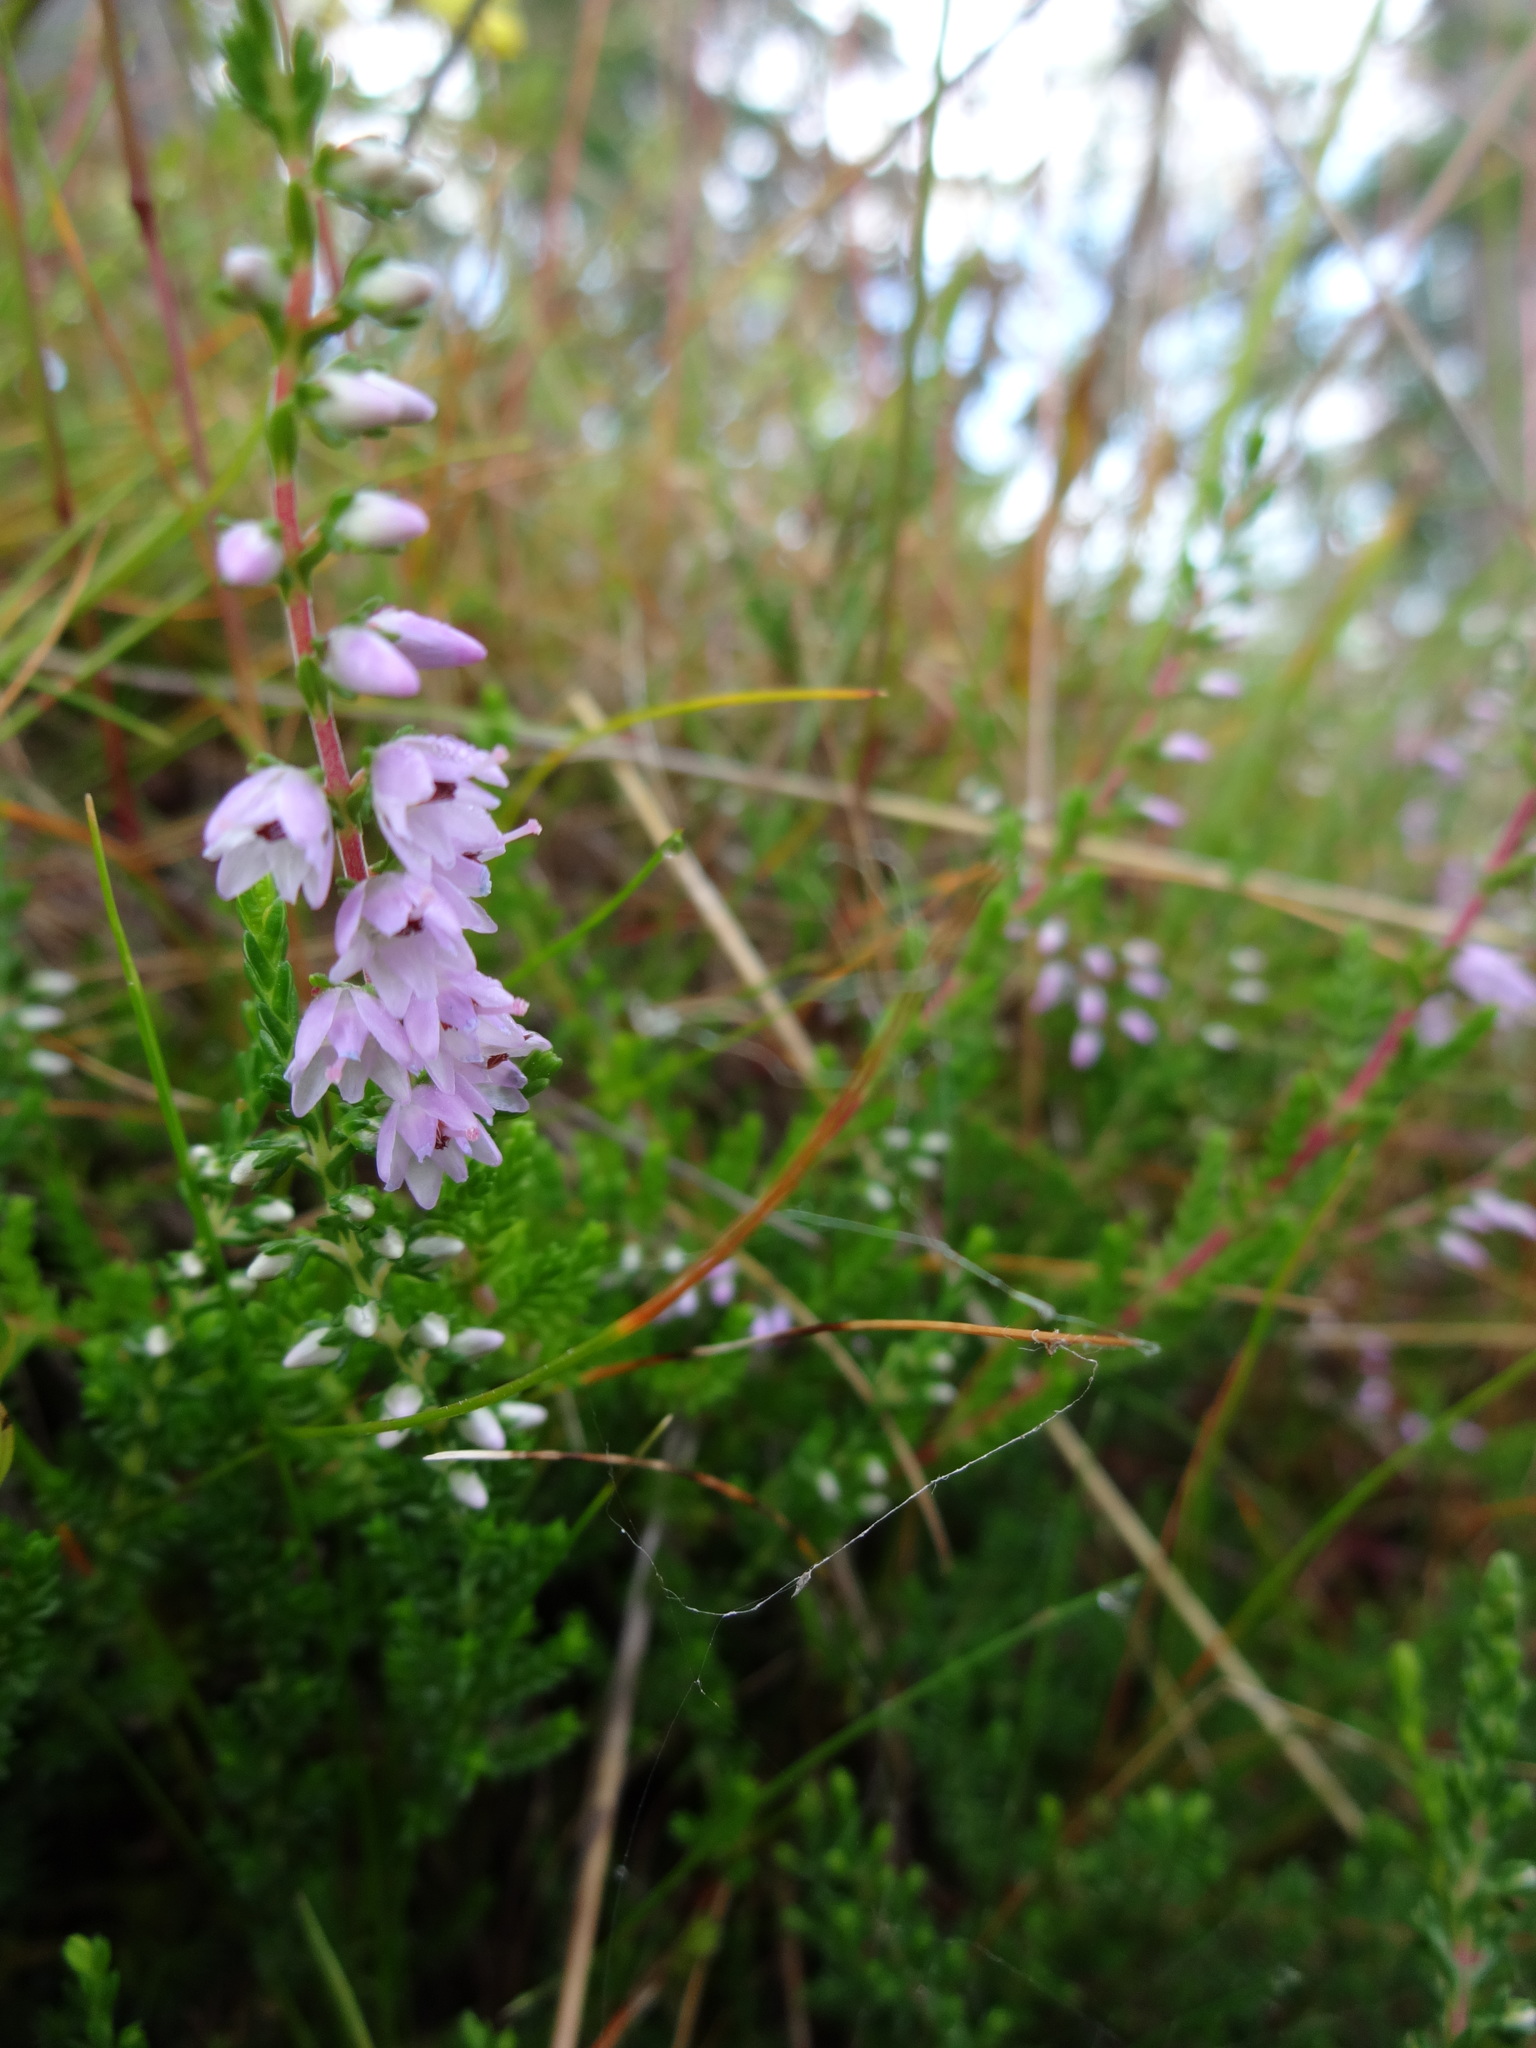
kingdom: Plantae
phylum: Tracheophyta
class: Magnoliopsida
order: Ericales
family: Ericaceae
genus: Calluna
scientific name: Calluna vulgaris
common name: Heather
